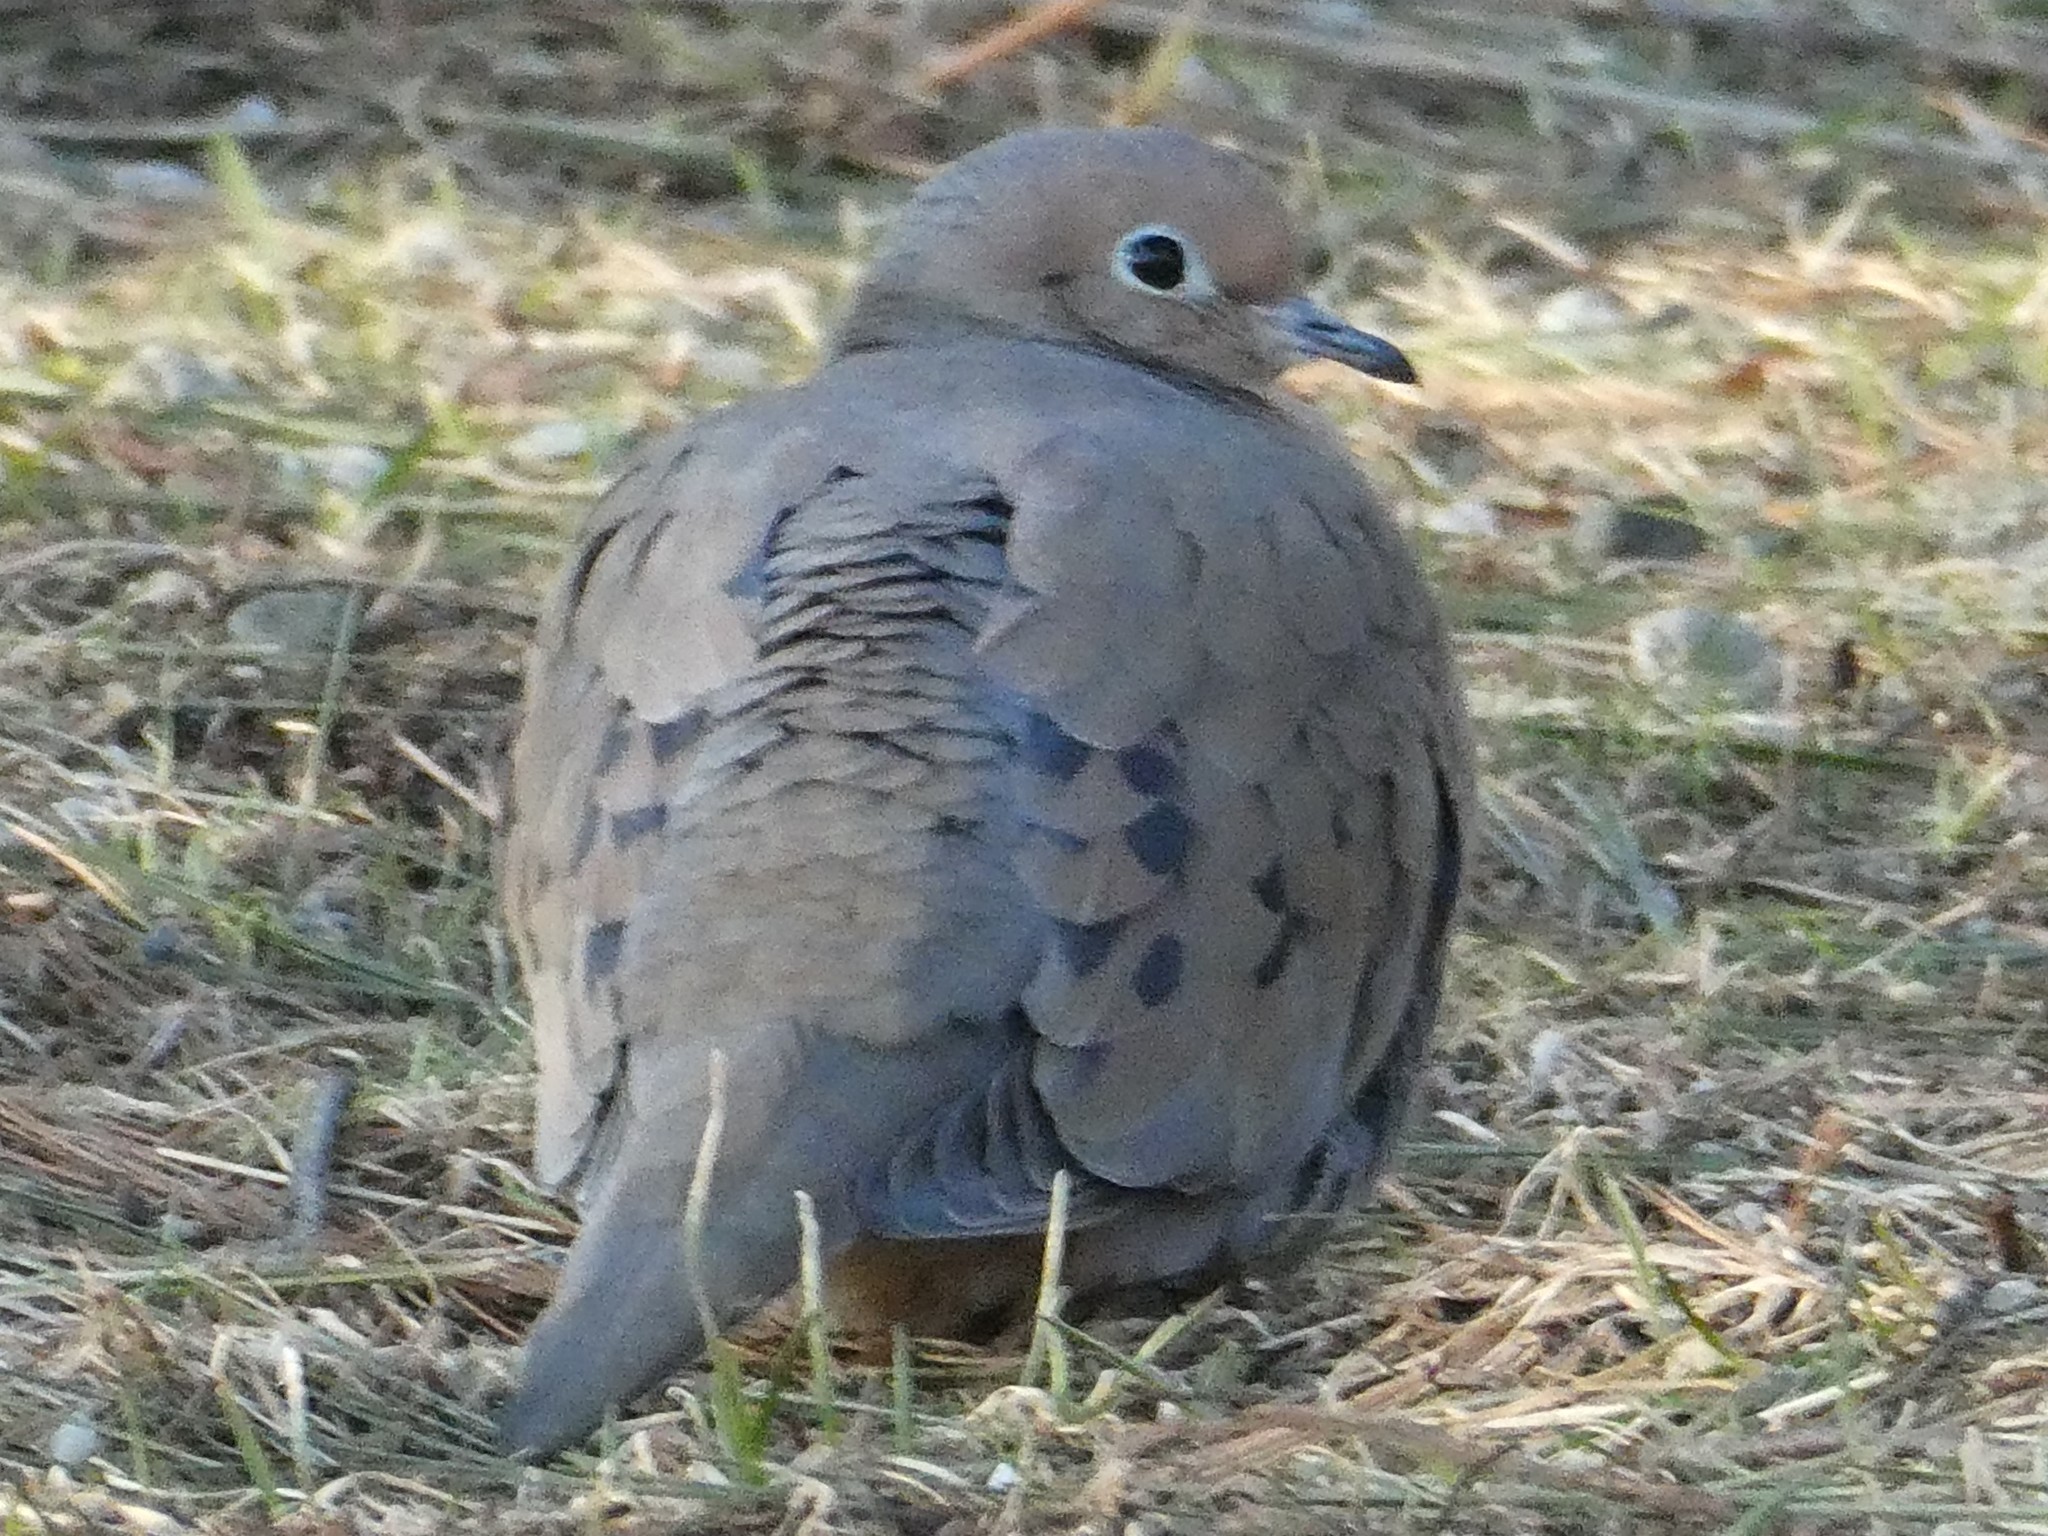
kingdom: Animalia
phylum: Chordata
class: Aves
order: Columbiformes
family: Columbidae
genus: Zenaida
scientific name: Zenaida macroura
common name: Mourning dove
